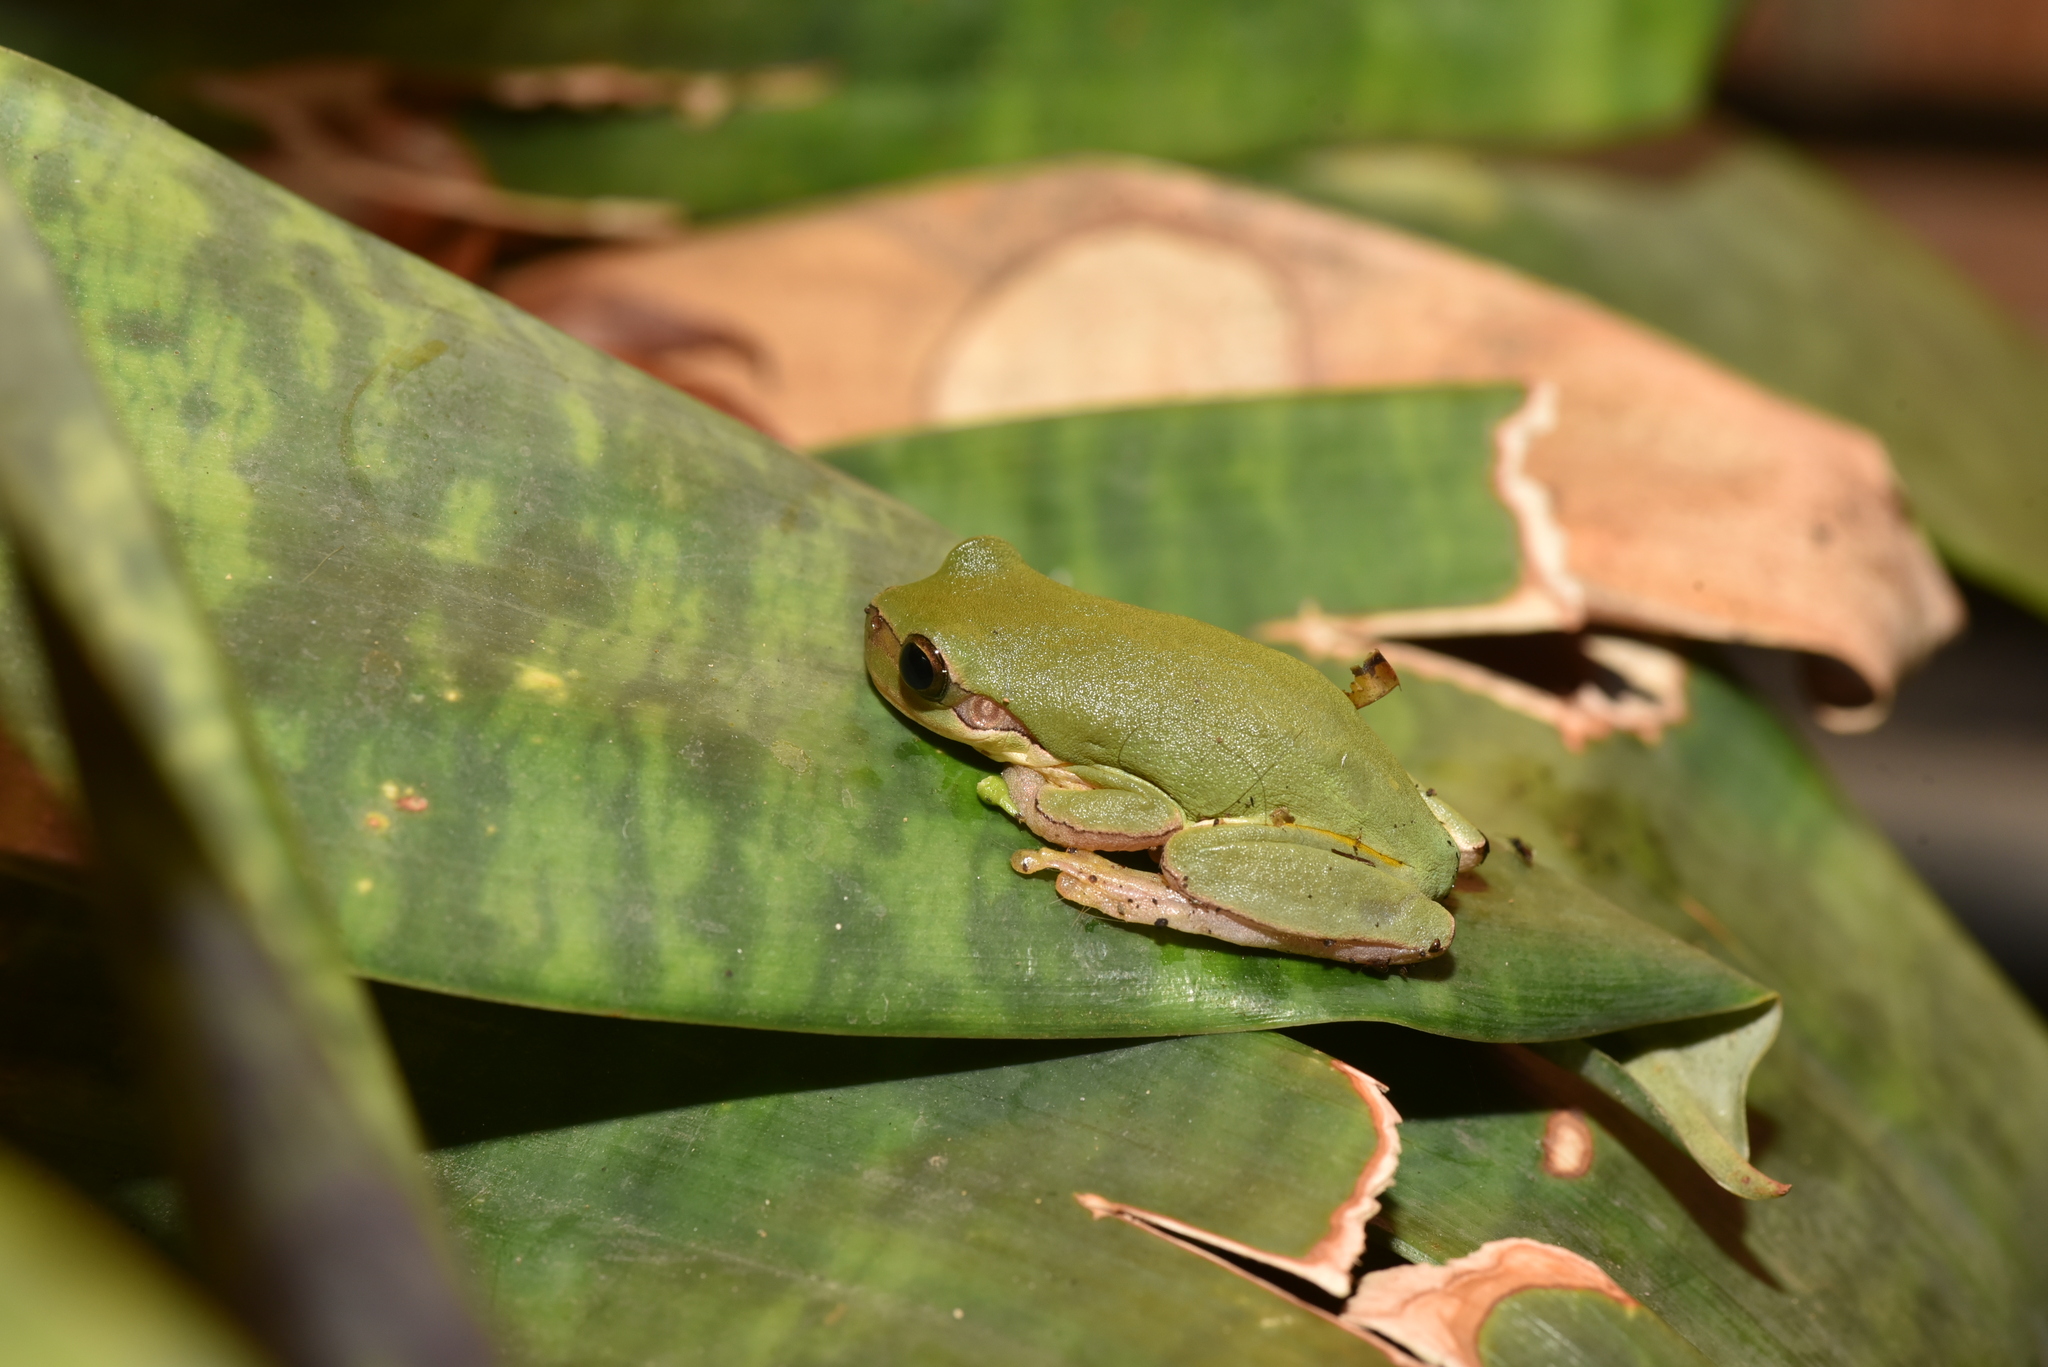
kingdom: Animalia
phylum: Chordata
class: Amphibia
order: Anura
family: Hylidae
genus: Hyla
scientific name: Hyla chinensis
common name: Common chinese treefrog
